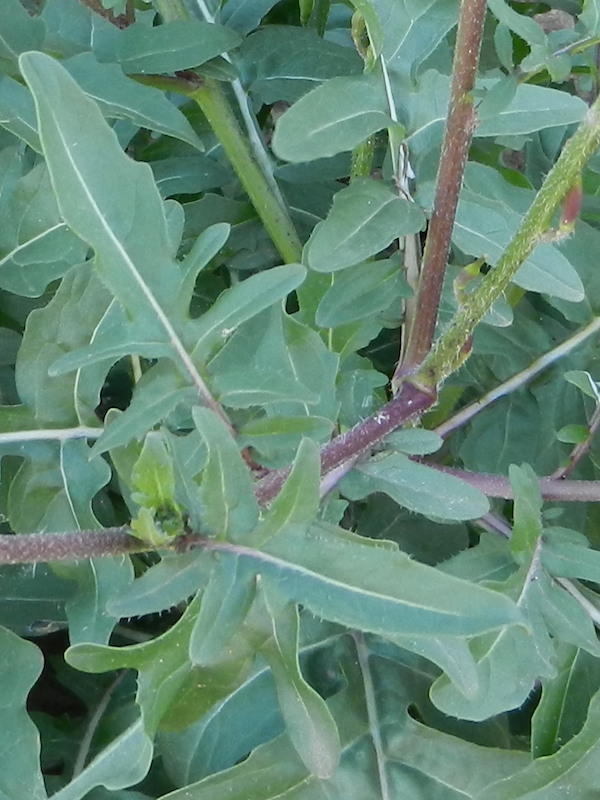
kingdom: Plantae
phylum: Tracheophyta
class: Magnoliopsida
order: Brassicales
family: Brassicaceae
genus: Eruca
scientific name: Eruca vesicaria
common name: Garden rocket
